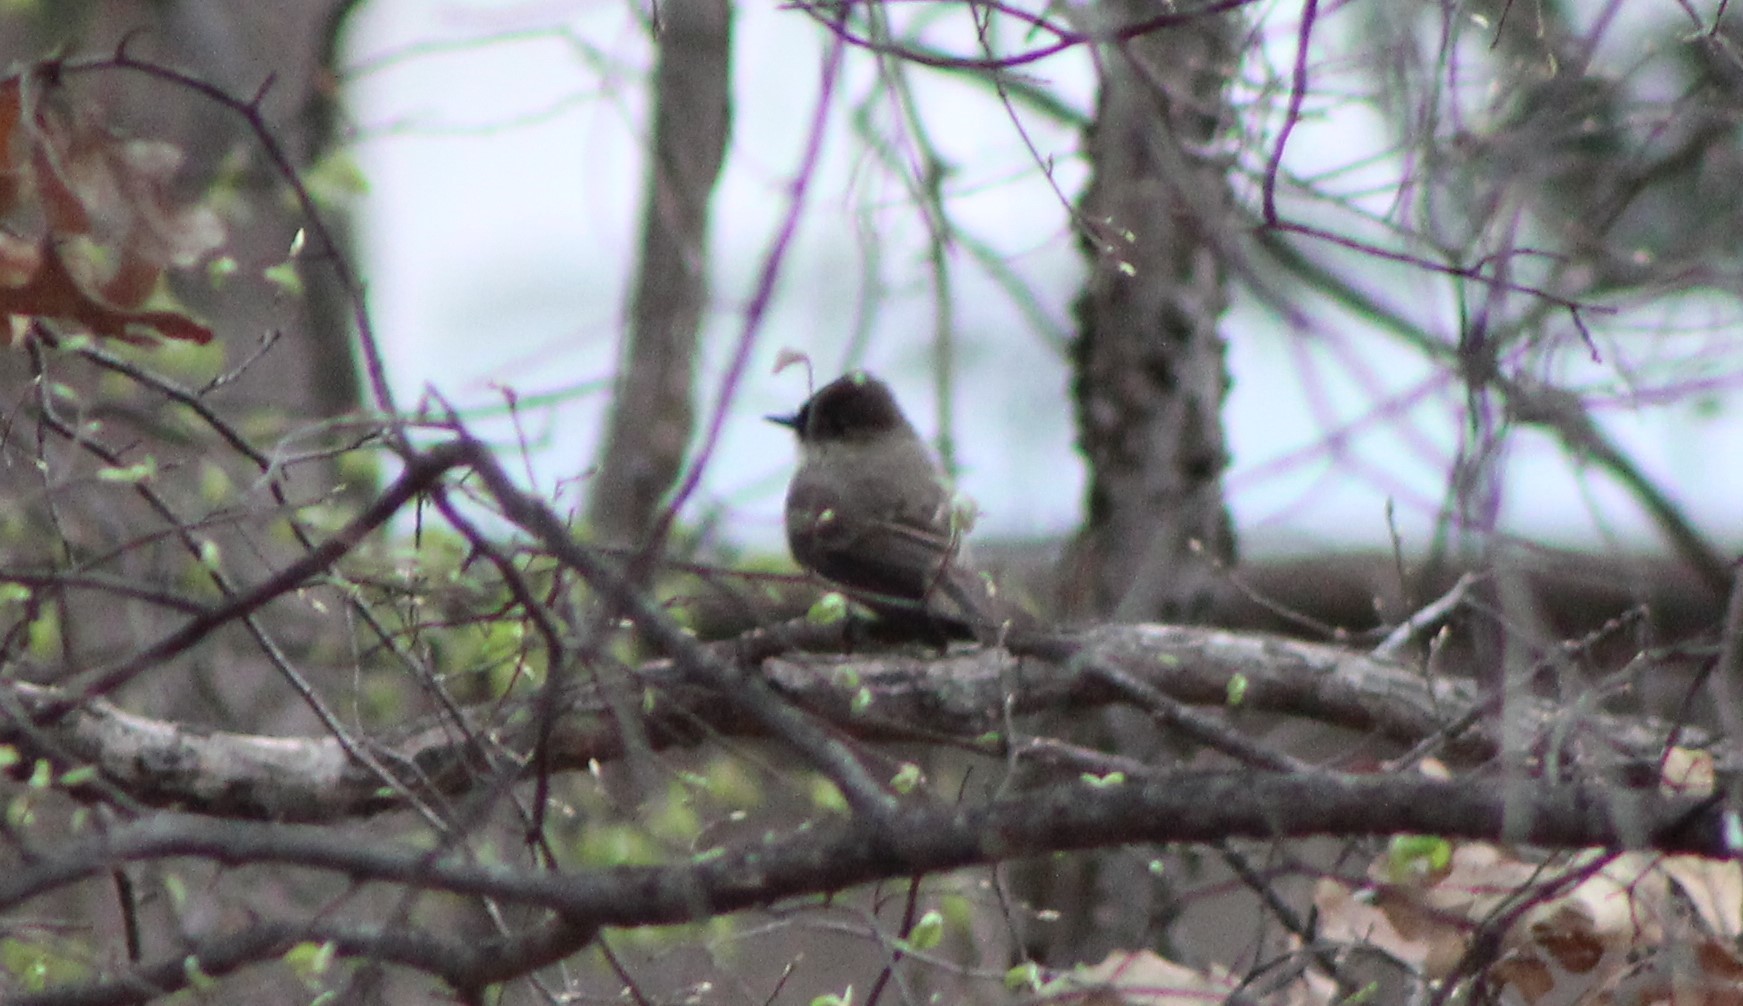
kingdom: Animalia
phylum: Chordata
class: Aves
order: Passeriformes
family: Tyrannidae
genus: Sayornis
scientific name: Sayornis phoebe
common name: Eastern phoebe
